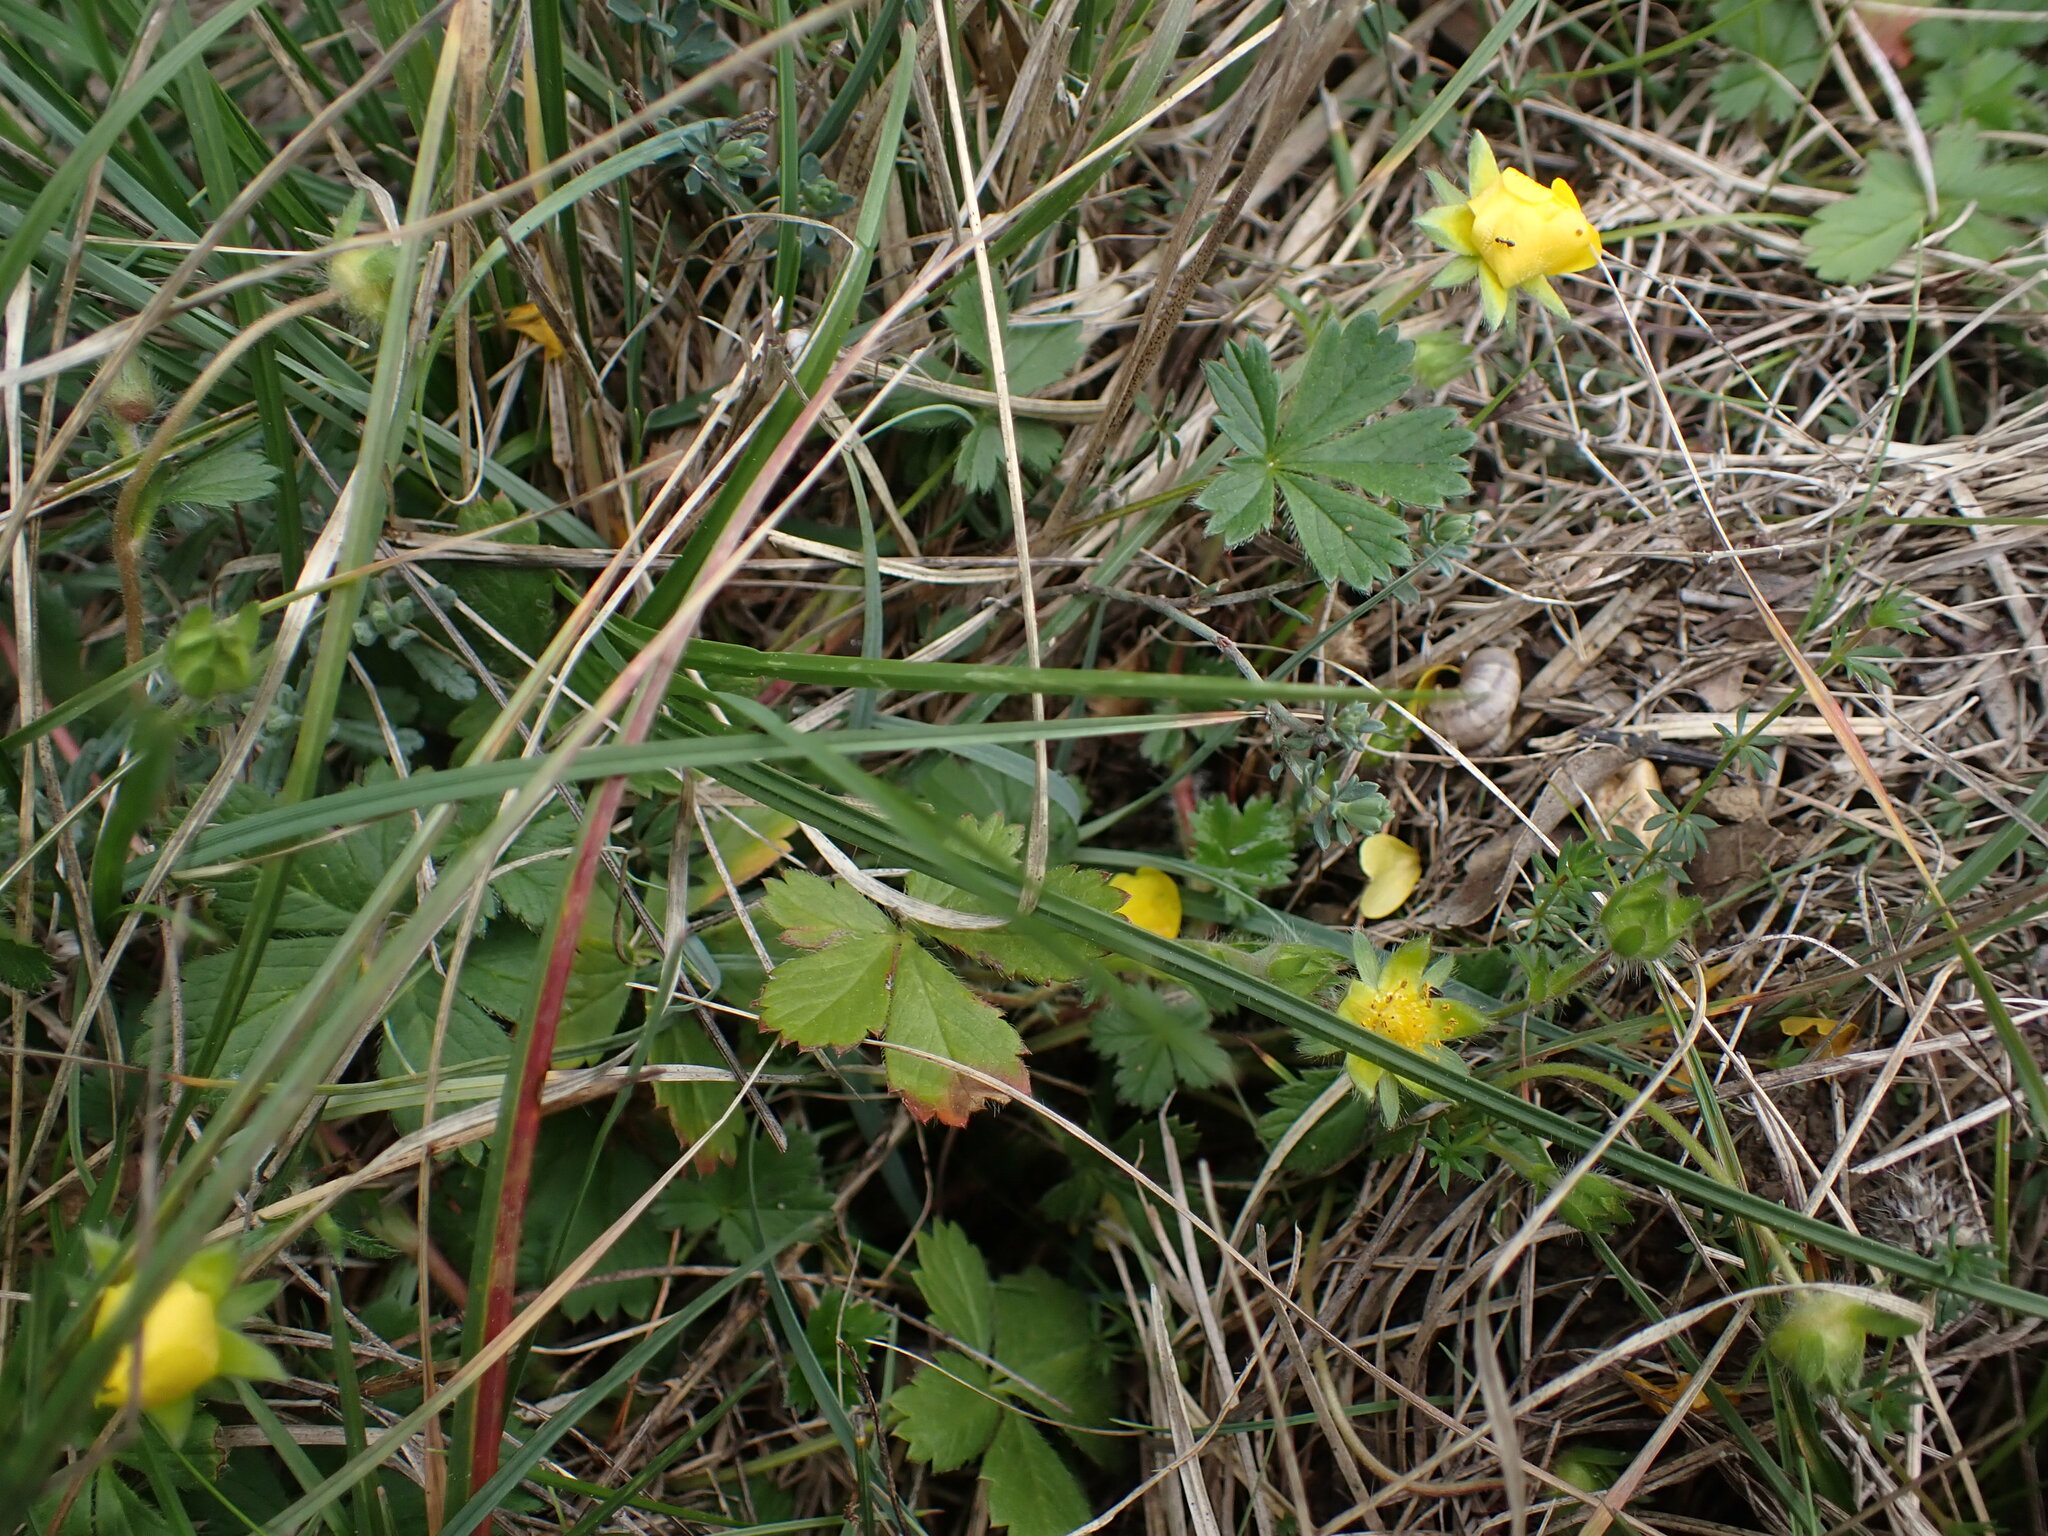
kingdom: Plantae
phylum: Tracheophyta
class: Magnoliopsida
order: Rosales
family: Rosaceae
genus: Potentilla
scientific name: Potentilla verna
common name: Spring cinquefoil
